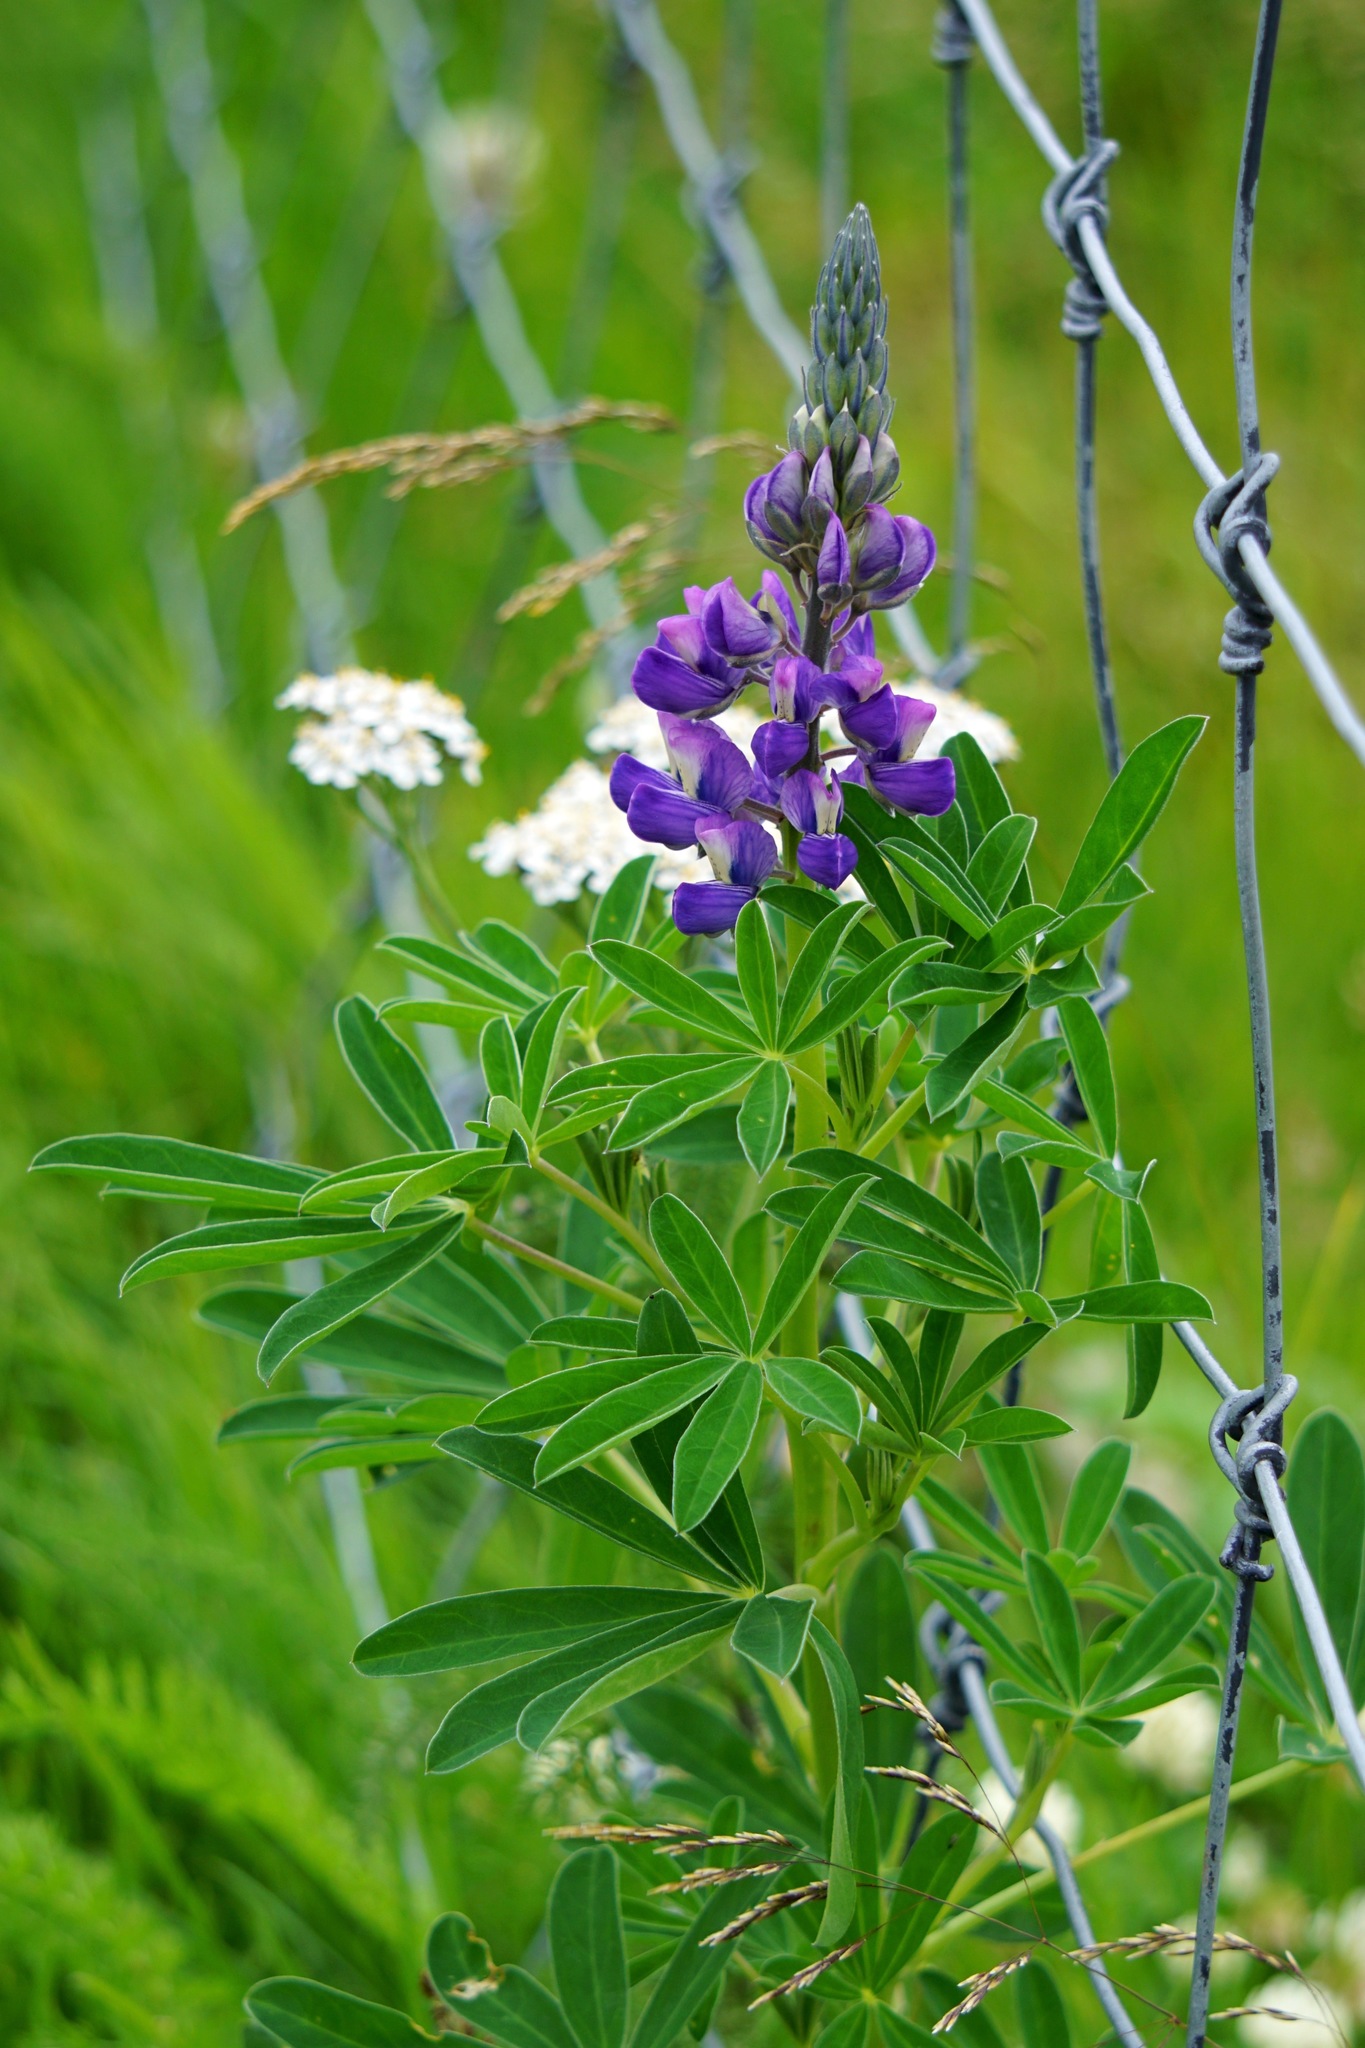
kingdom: Plantae
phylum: Tracheophyta
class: Magnoliopsida
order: Fabales
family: Fabaceae
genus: Lupinus
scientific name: Lupinus nootkatensis
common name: Nootka lupine
